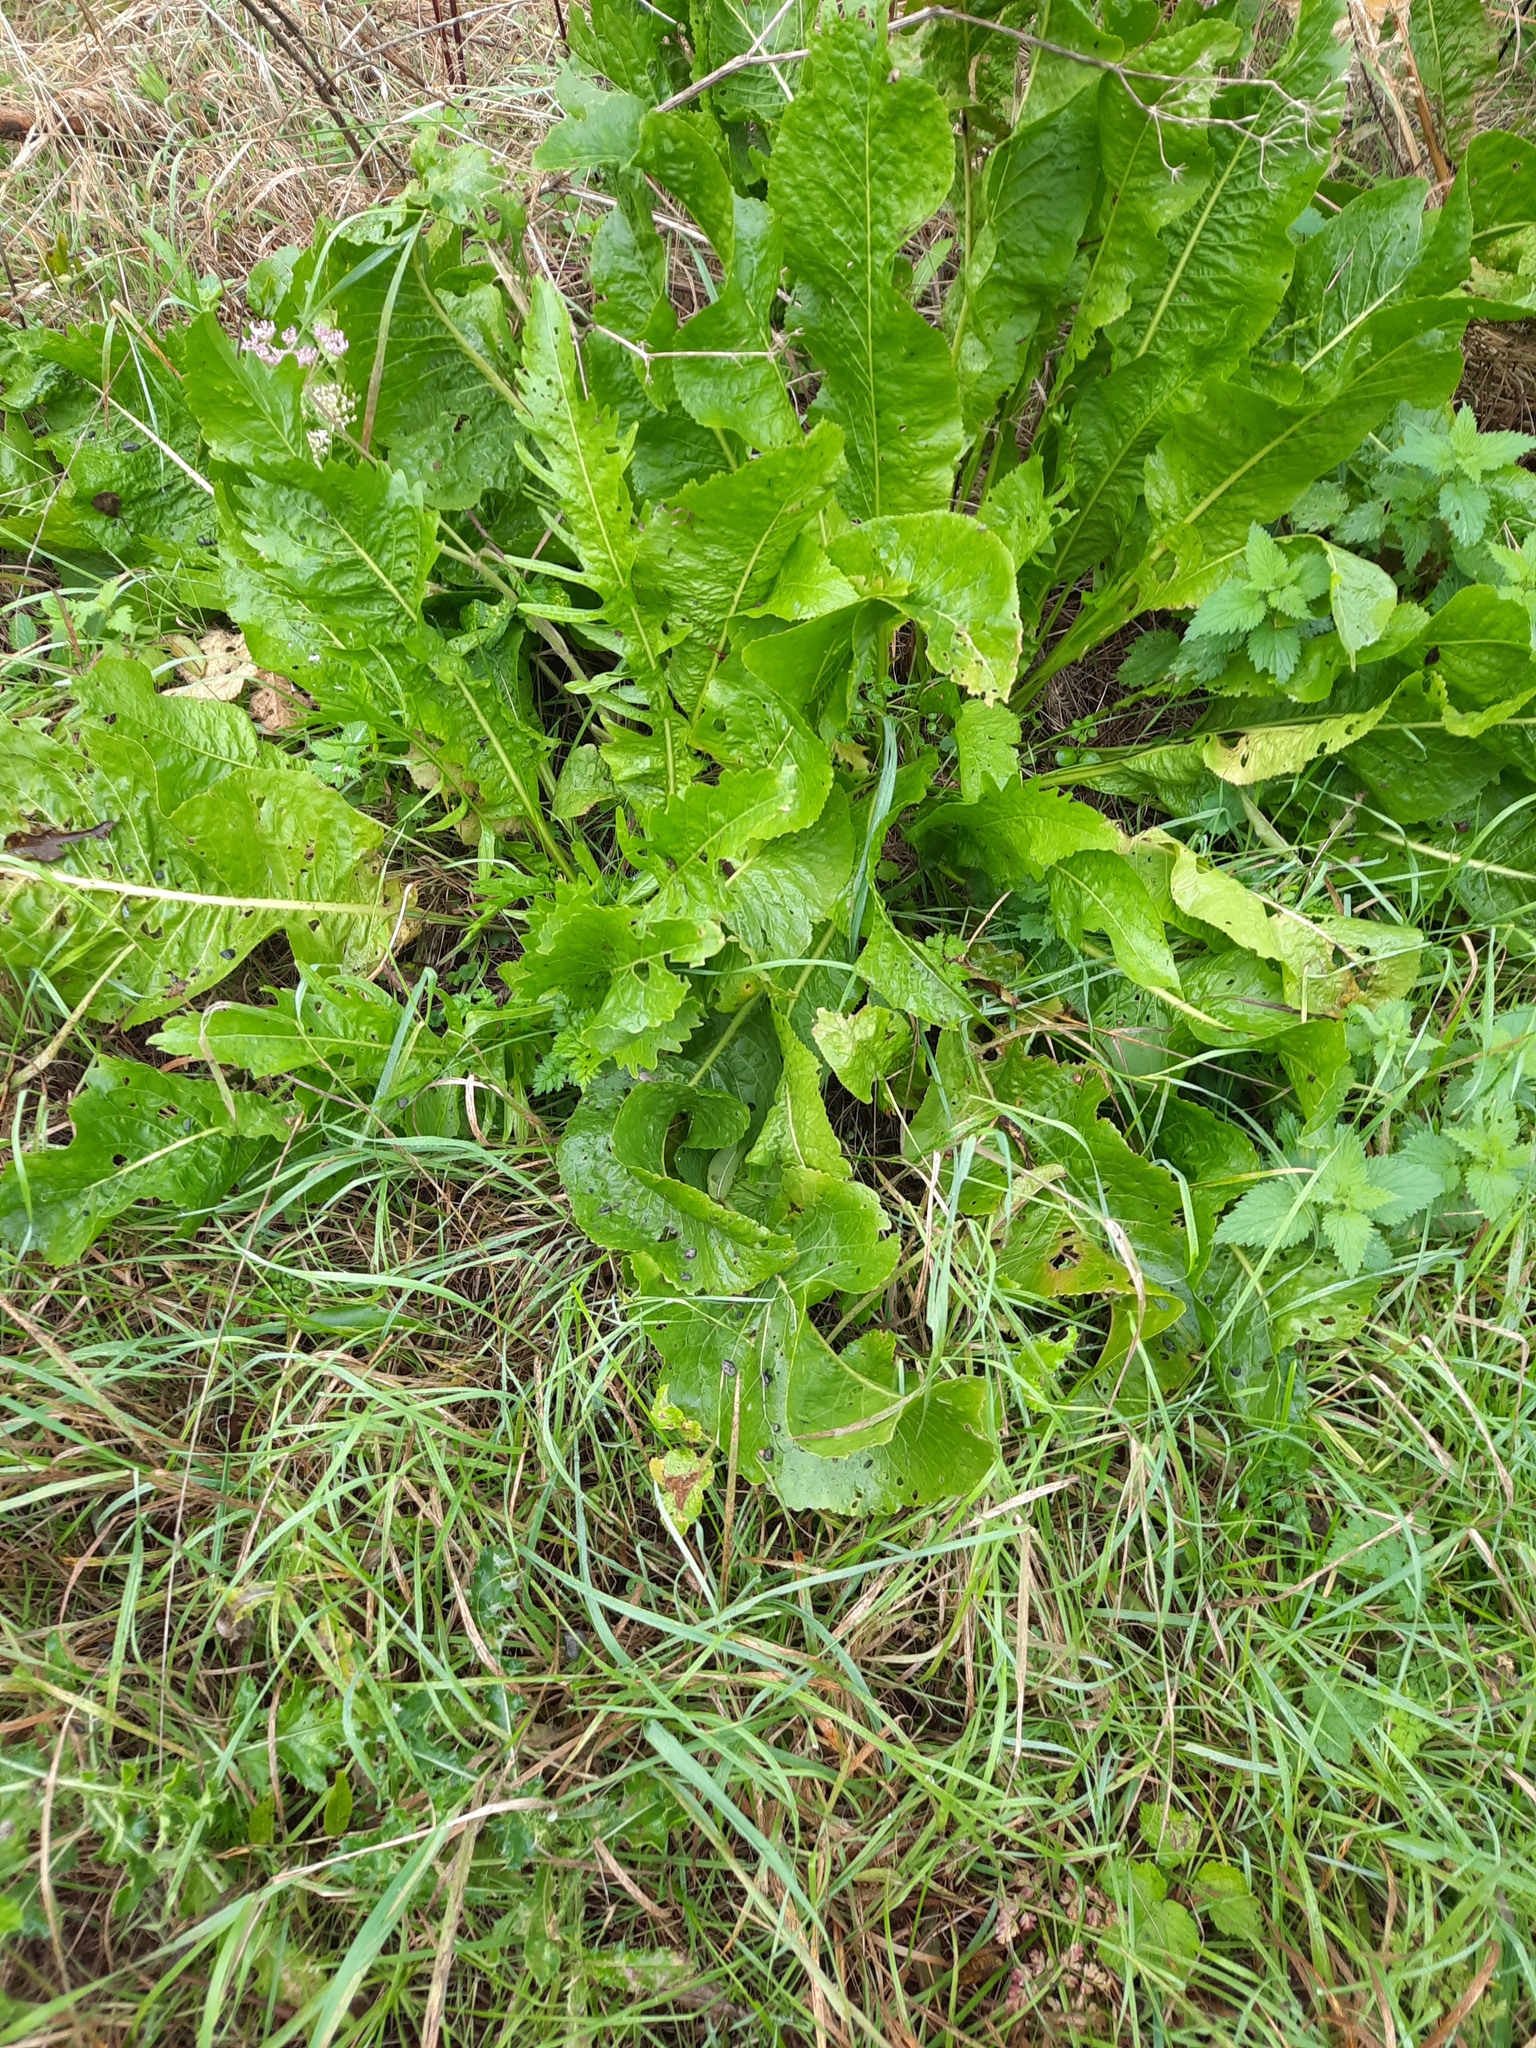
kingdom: Plantae
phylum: Tracheophyta
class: Magnoliopsida
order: Brassicales
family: Brassicaceae
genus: Armoracia
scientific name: Armoracia rusticana
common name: Horseradish
